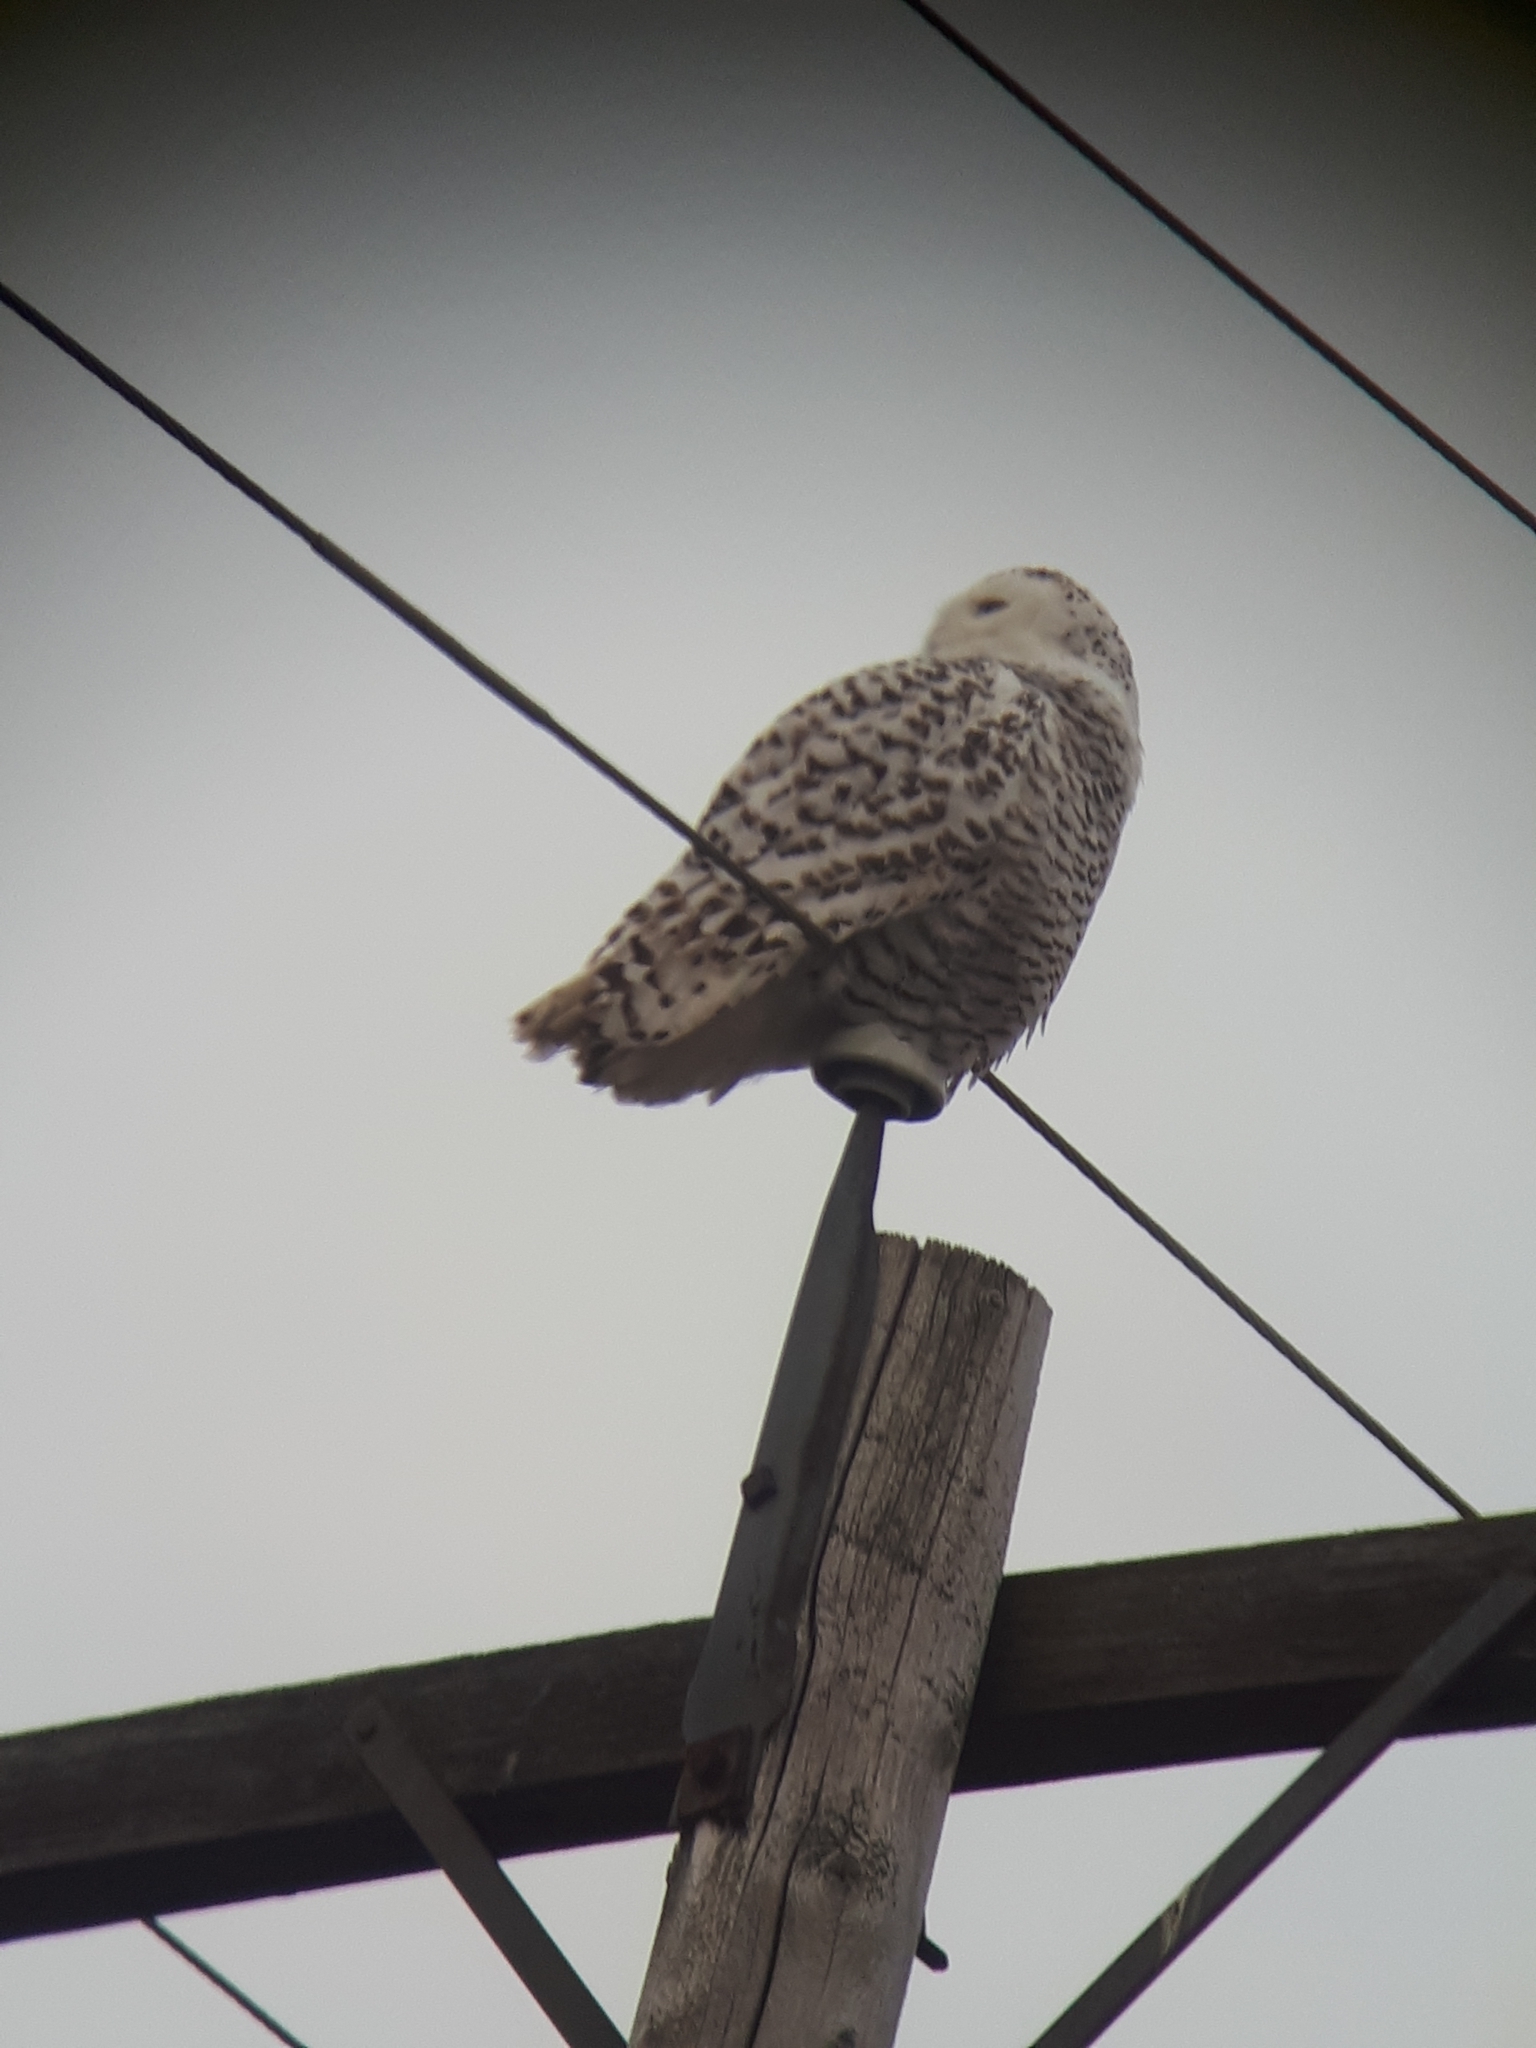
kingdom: Animalia
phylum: Chordata
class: Aves
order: Strigiformes
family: Strigidae
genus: Bubo
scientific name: Bubo scandiacus
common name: Snowy owl
